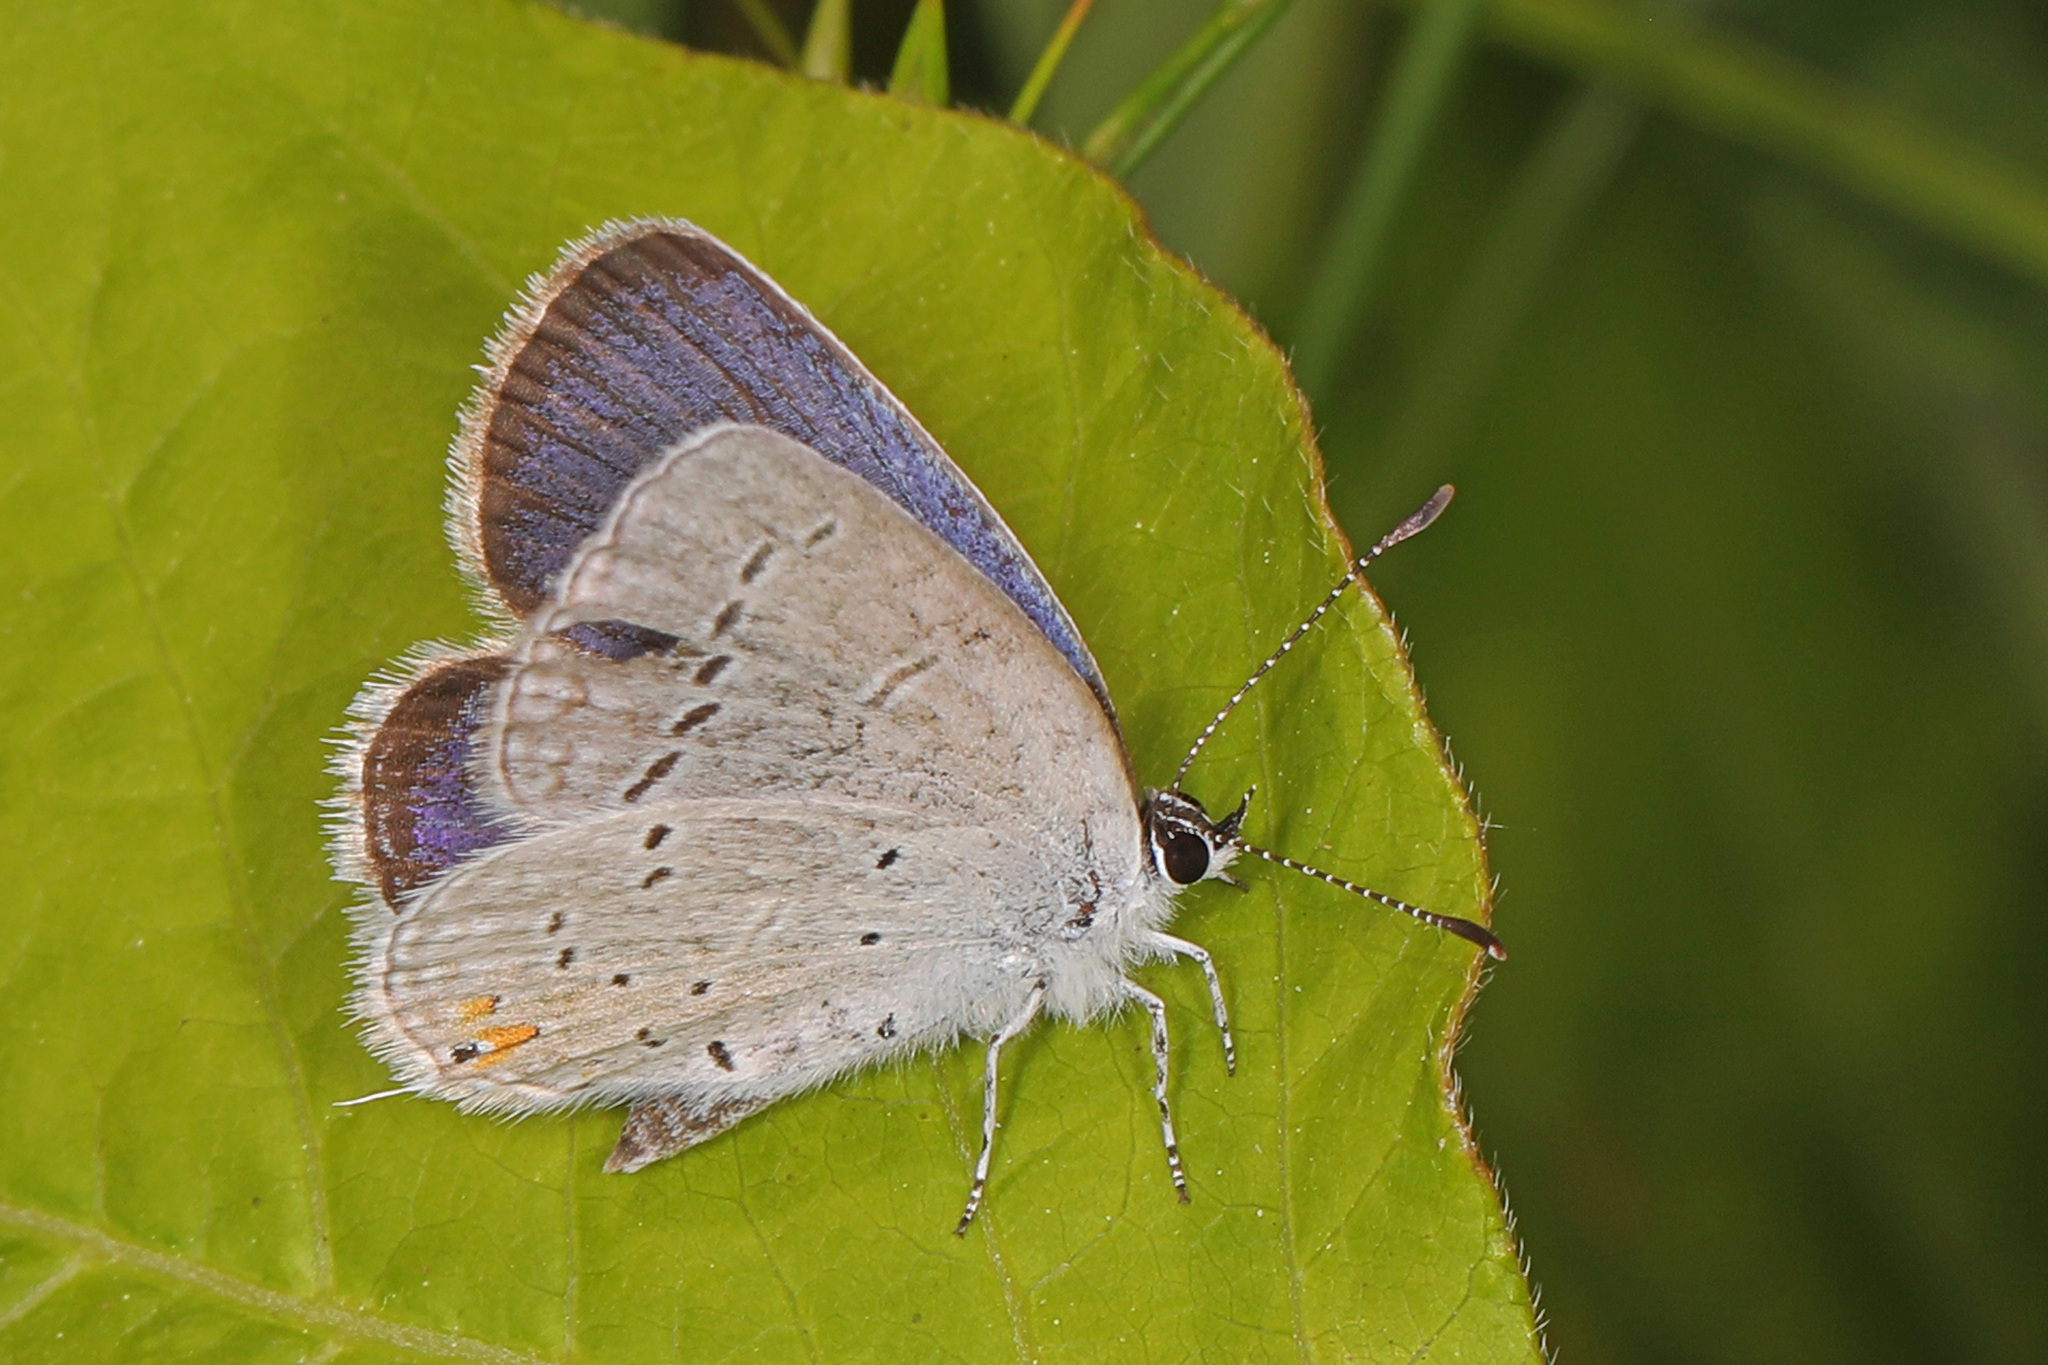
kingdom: Animalia
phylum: Arthropoda
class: Insecta
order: Lepidoptera
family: Lycaenidae
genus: Elkalyce
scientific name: Elkalyce comyntas
